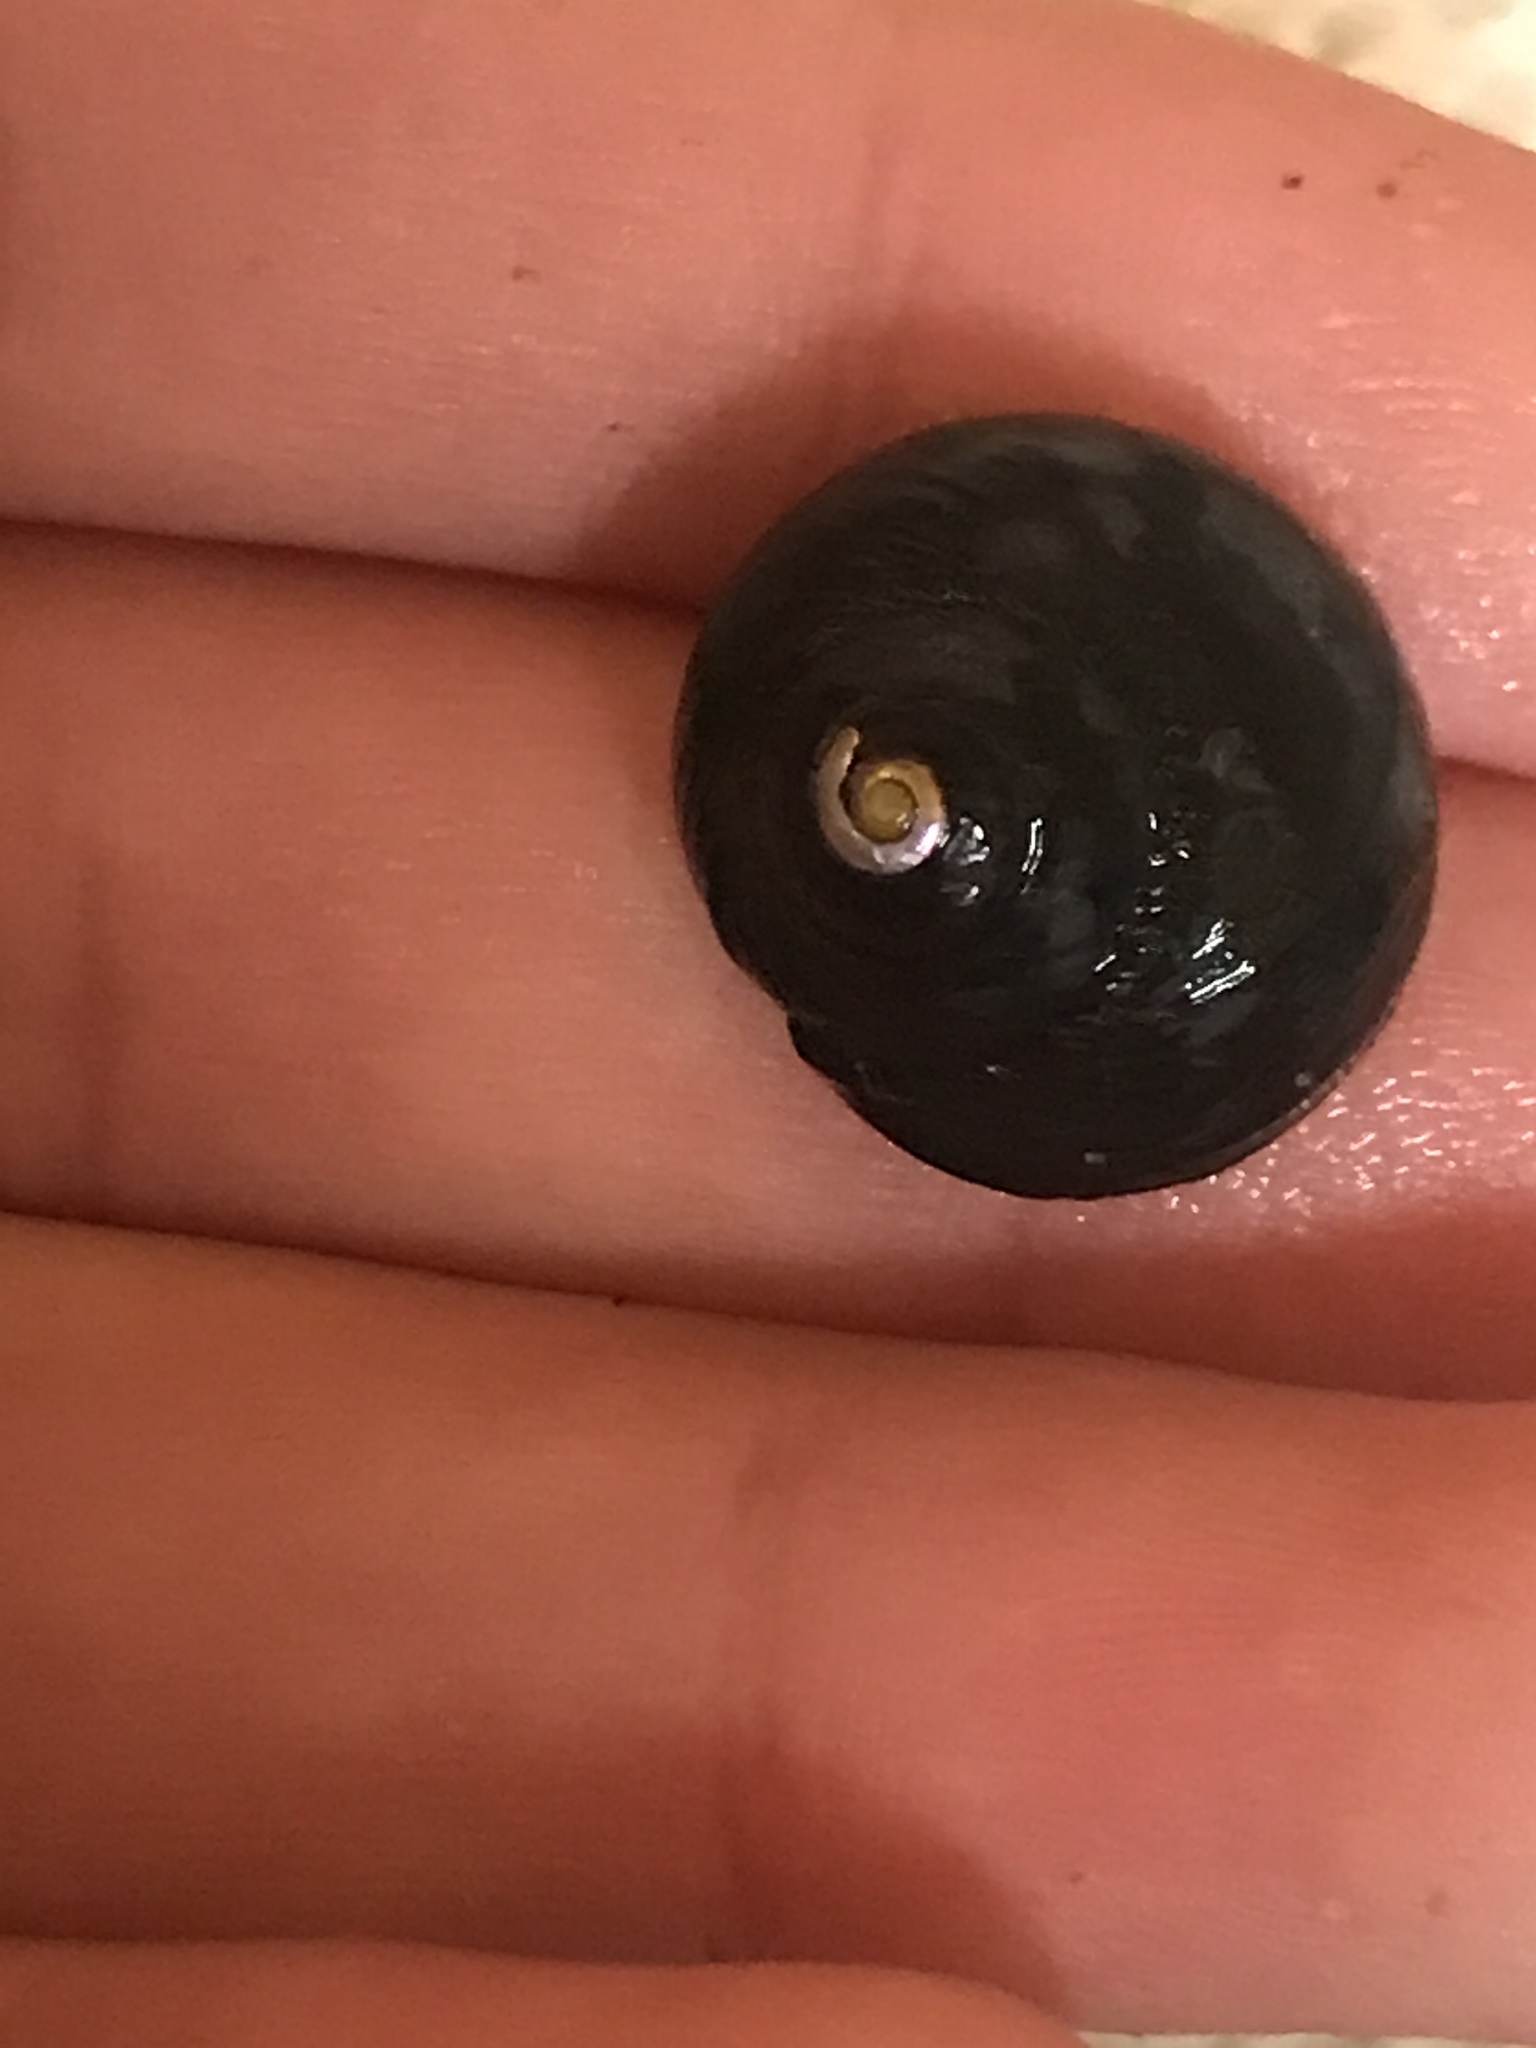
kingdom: Animalia
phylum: Mollusca
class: Gastropoda
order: Trochida
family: Tegulidae
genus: Tegula
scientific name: Tegula funebralis
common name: Black tegula
